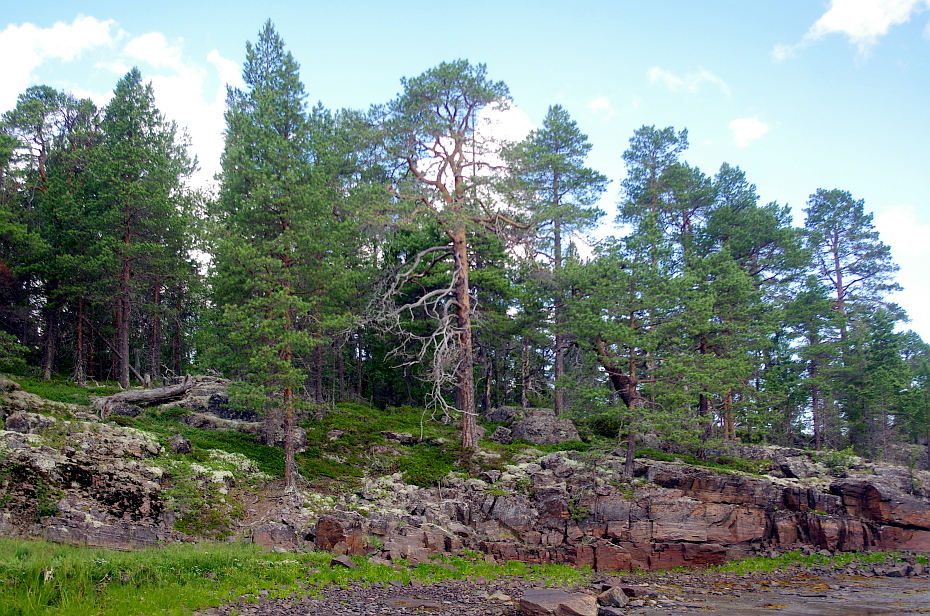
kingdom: Plantae
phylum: Tracheophyta
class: Pinopsida
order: Pinales
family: Pinaceae
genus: Pinus
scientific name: Pinus sylvestris
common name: Scots pine
